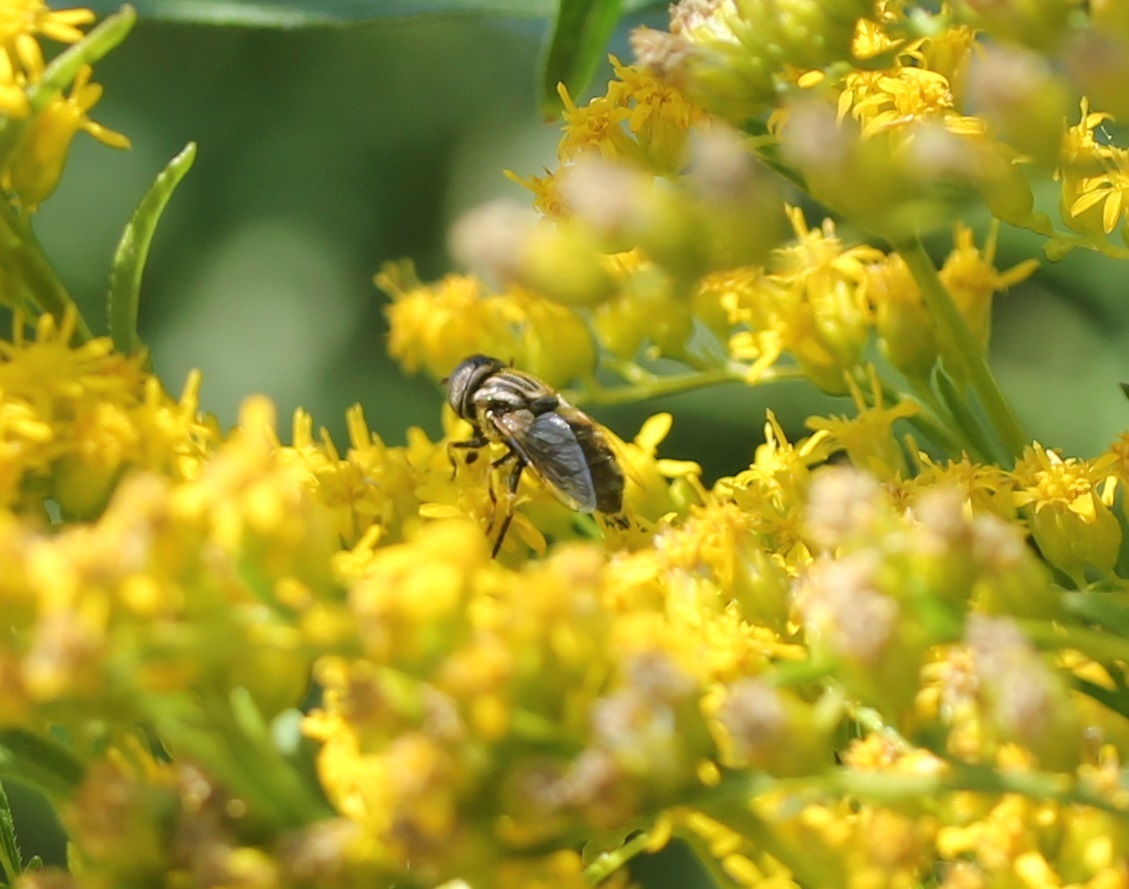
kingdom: Animalia
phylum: Arthropoda
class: Insecta
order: Diptera
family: Syrphidae
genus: Eristalinus
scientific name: Eristalinus aeneus
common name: Syrphid fly
